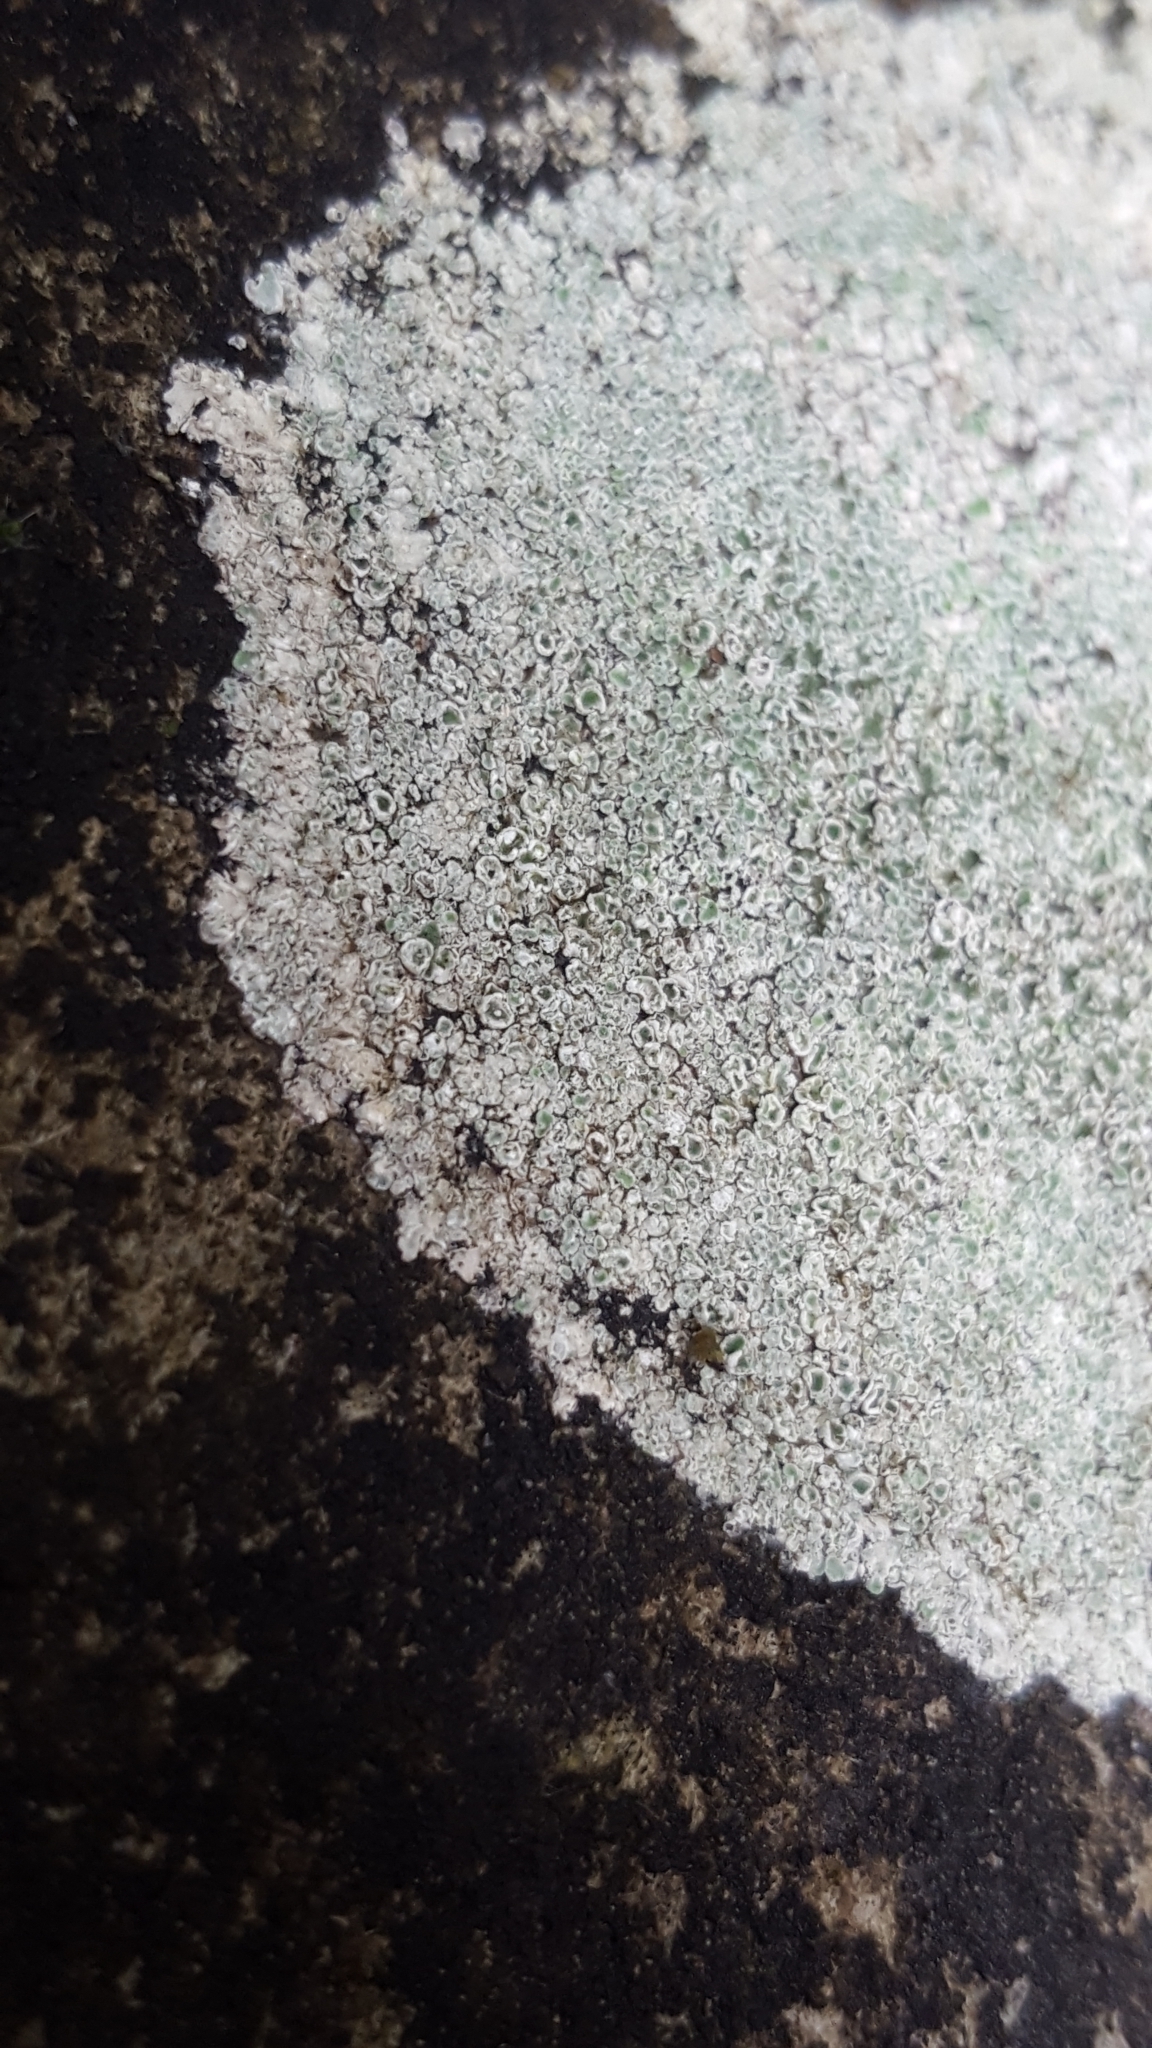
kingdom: Fungi
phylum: Ascomycota
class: Lecanoromycetes
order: Lecanorales
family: Lecanoraceae
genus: Protoparmeliopsis
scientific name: Protoparmeliopsis muralis
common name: Stonewall rim lichen
